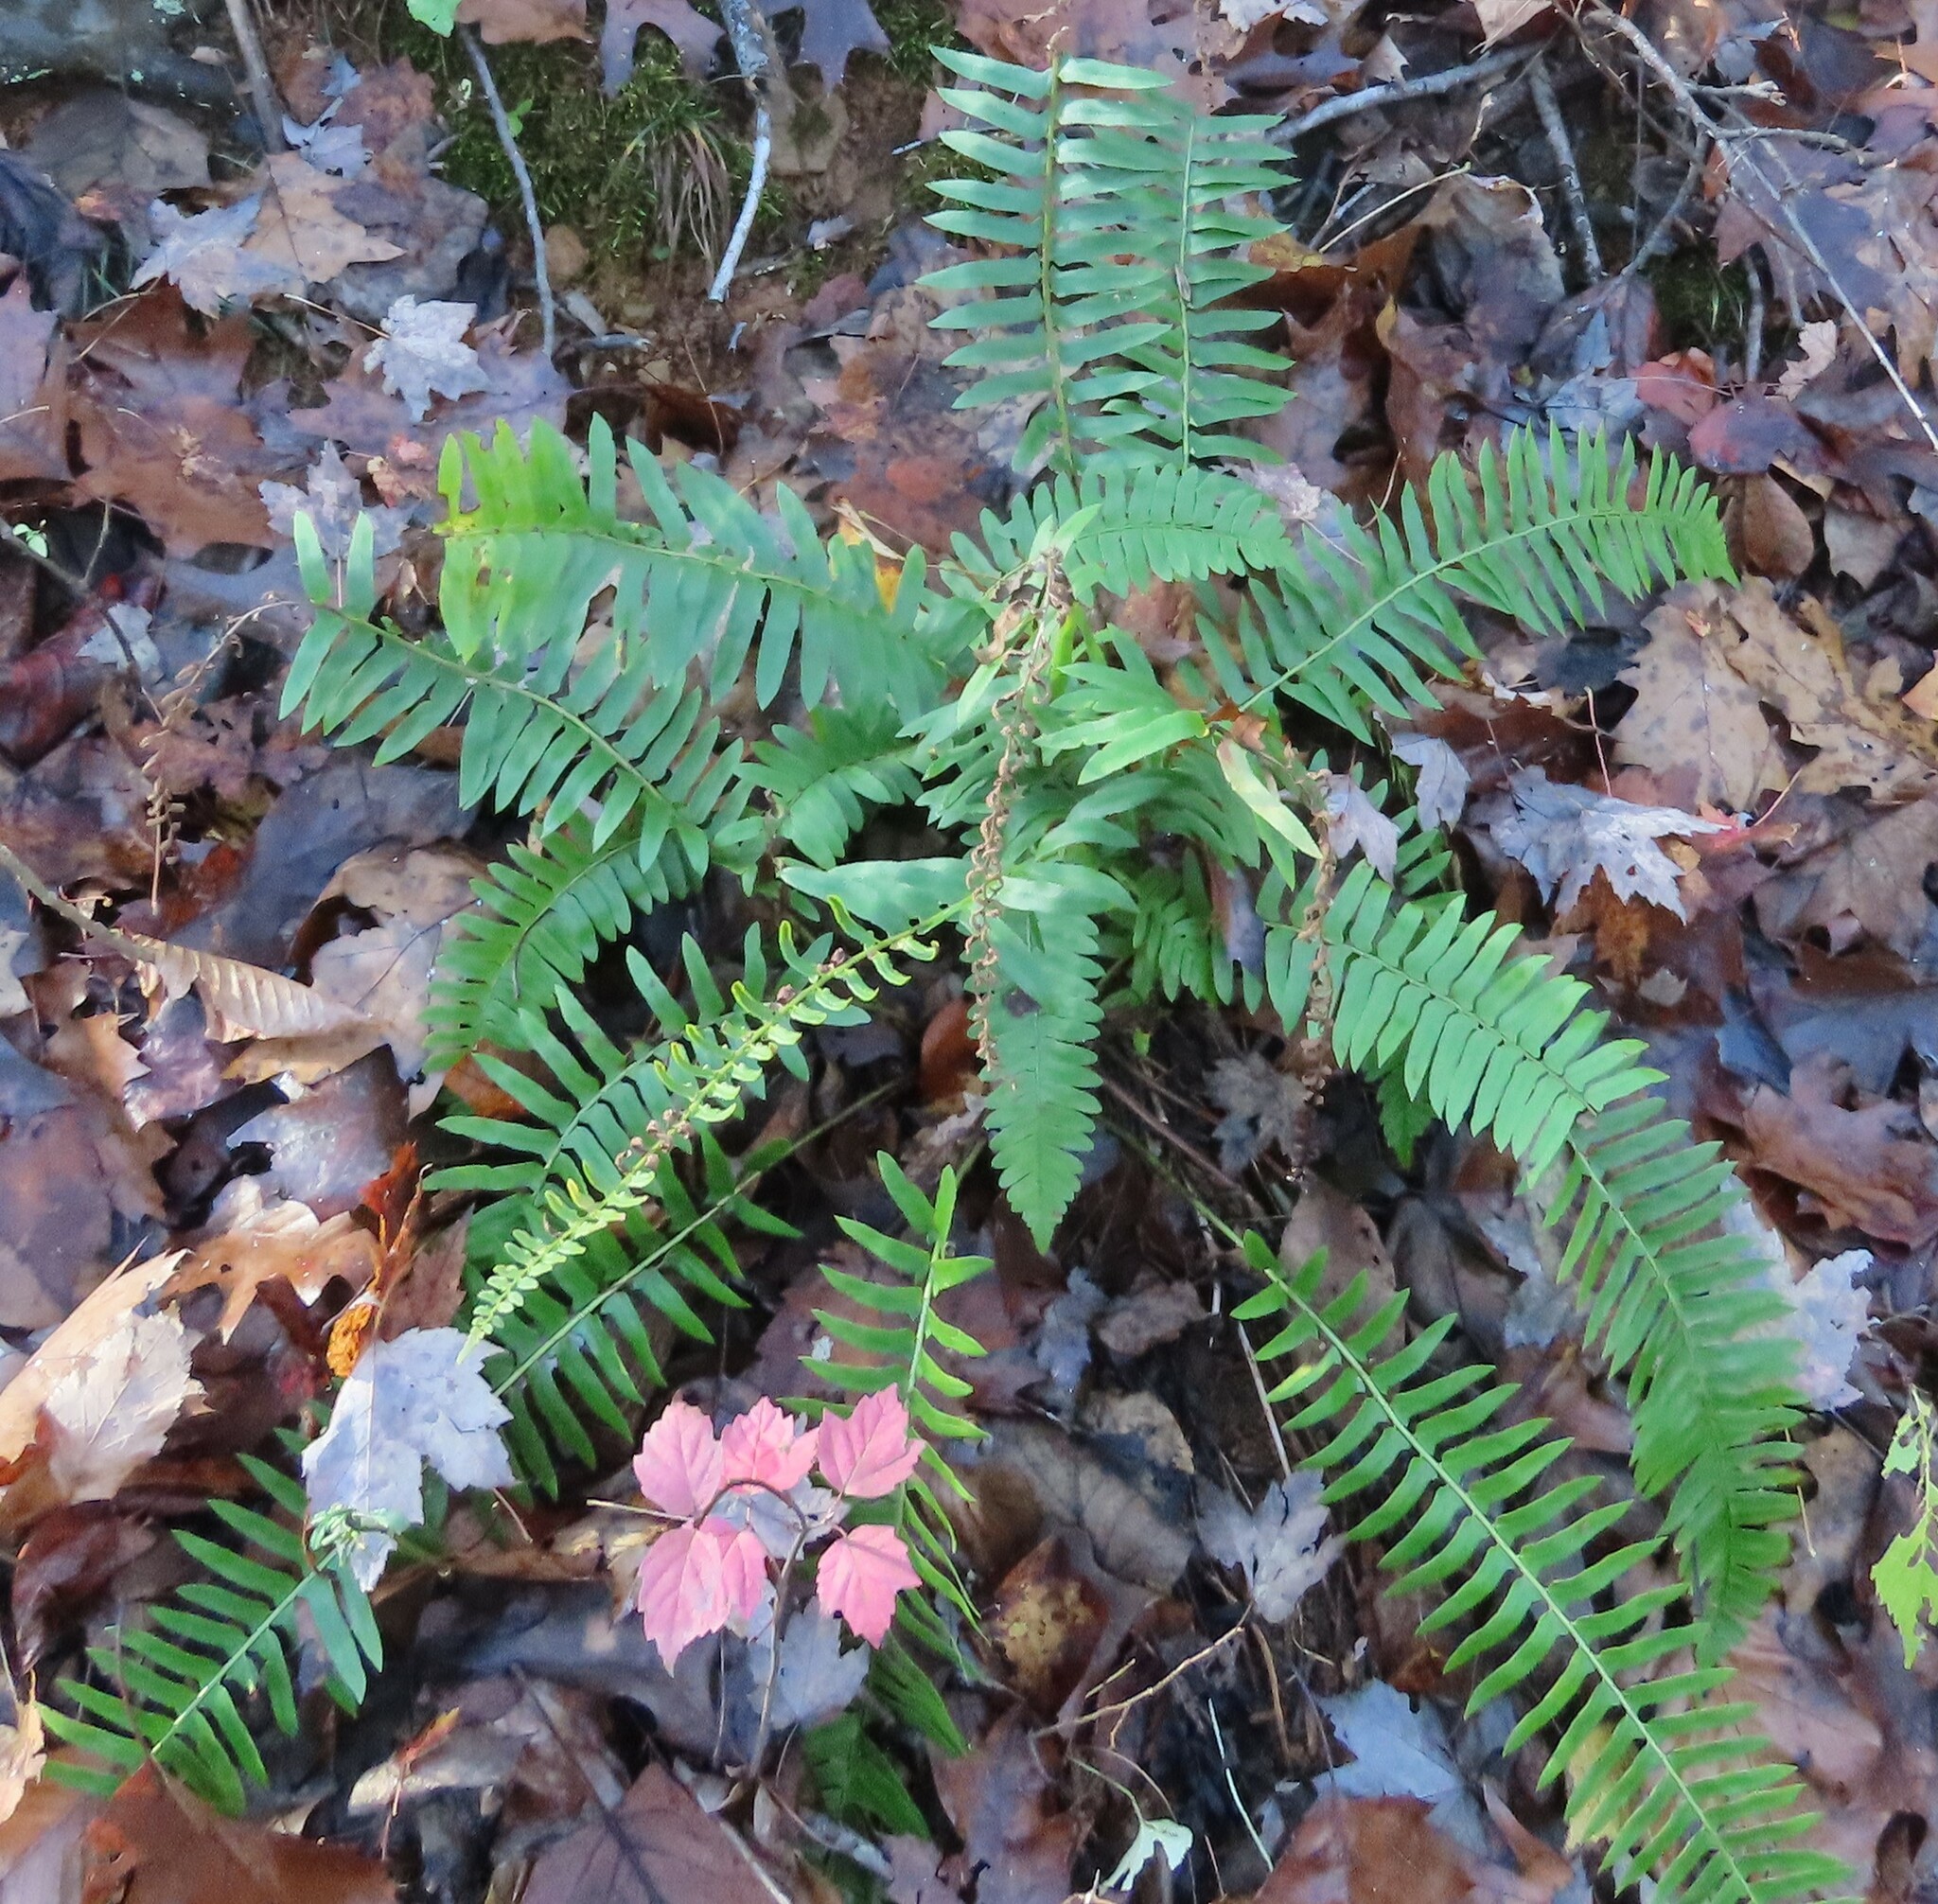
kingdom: Plantae
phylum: Tracheophyta
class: Polypodiopsida
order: Polypodiales
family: Dryopteridaceae
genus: Polystichum
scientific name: Polystichum acrostichoides
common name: Christmas fern
